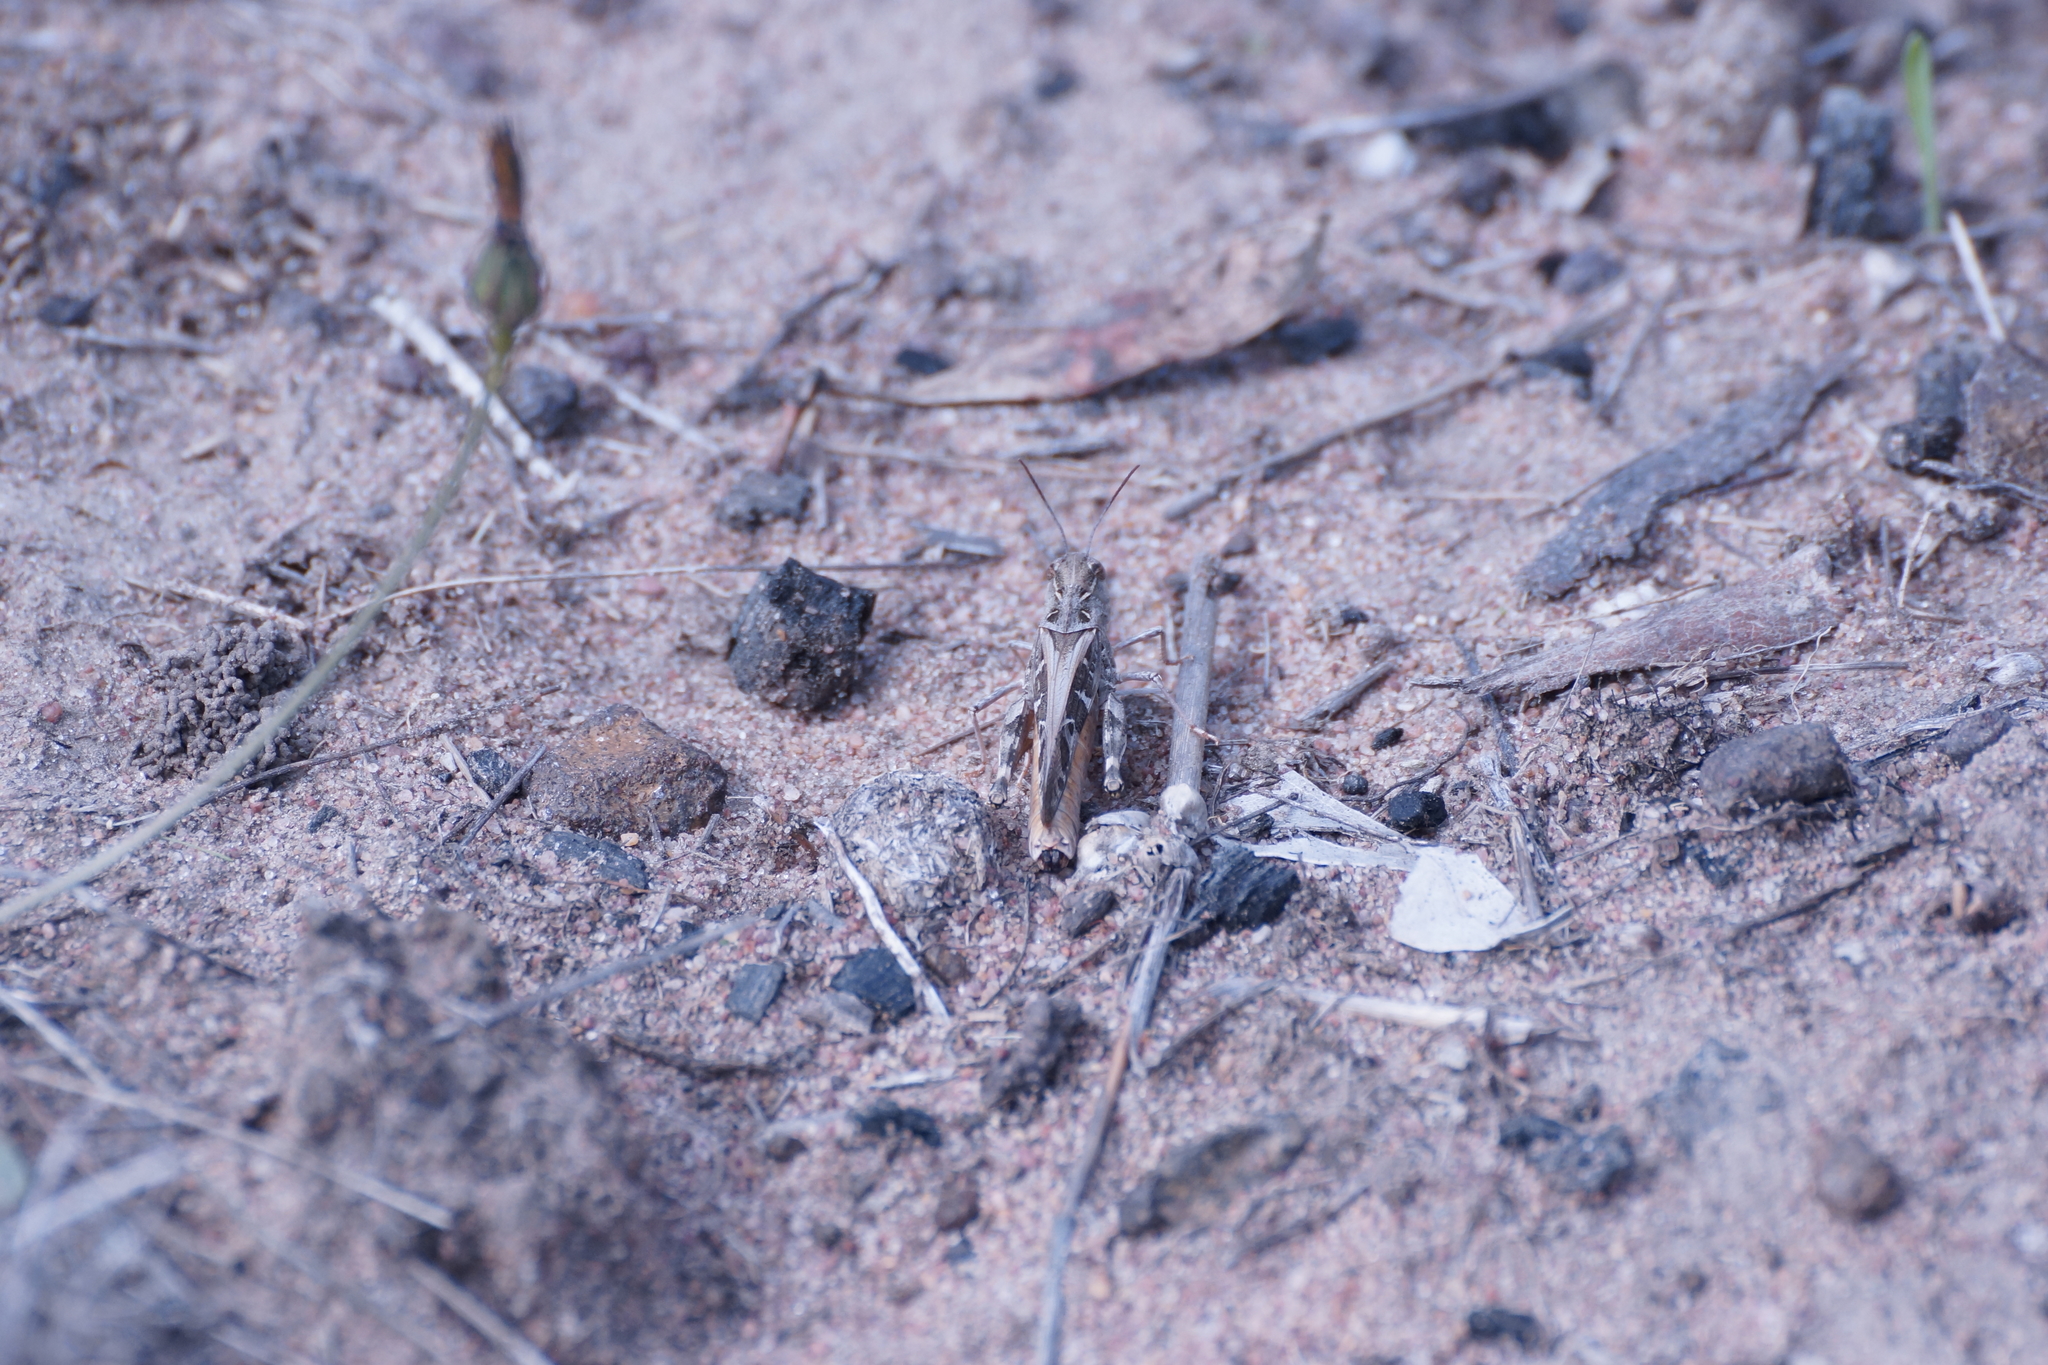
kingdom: Animalia
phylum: Arthropoda
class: Insecta
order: Orthoptera
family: Acrididae
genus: Oedaleus
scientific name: Oedaleus australis
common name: Eastern oedaleus
